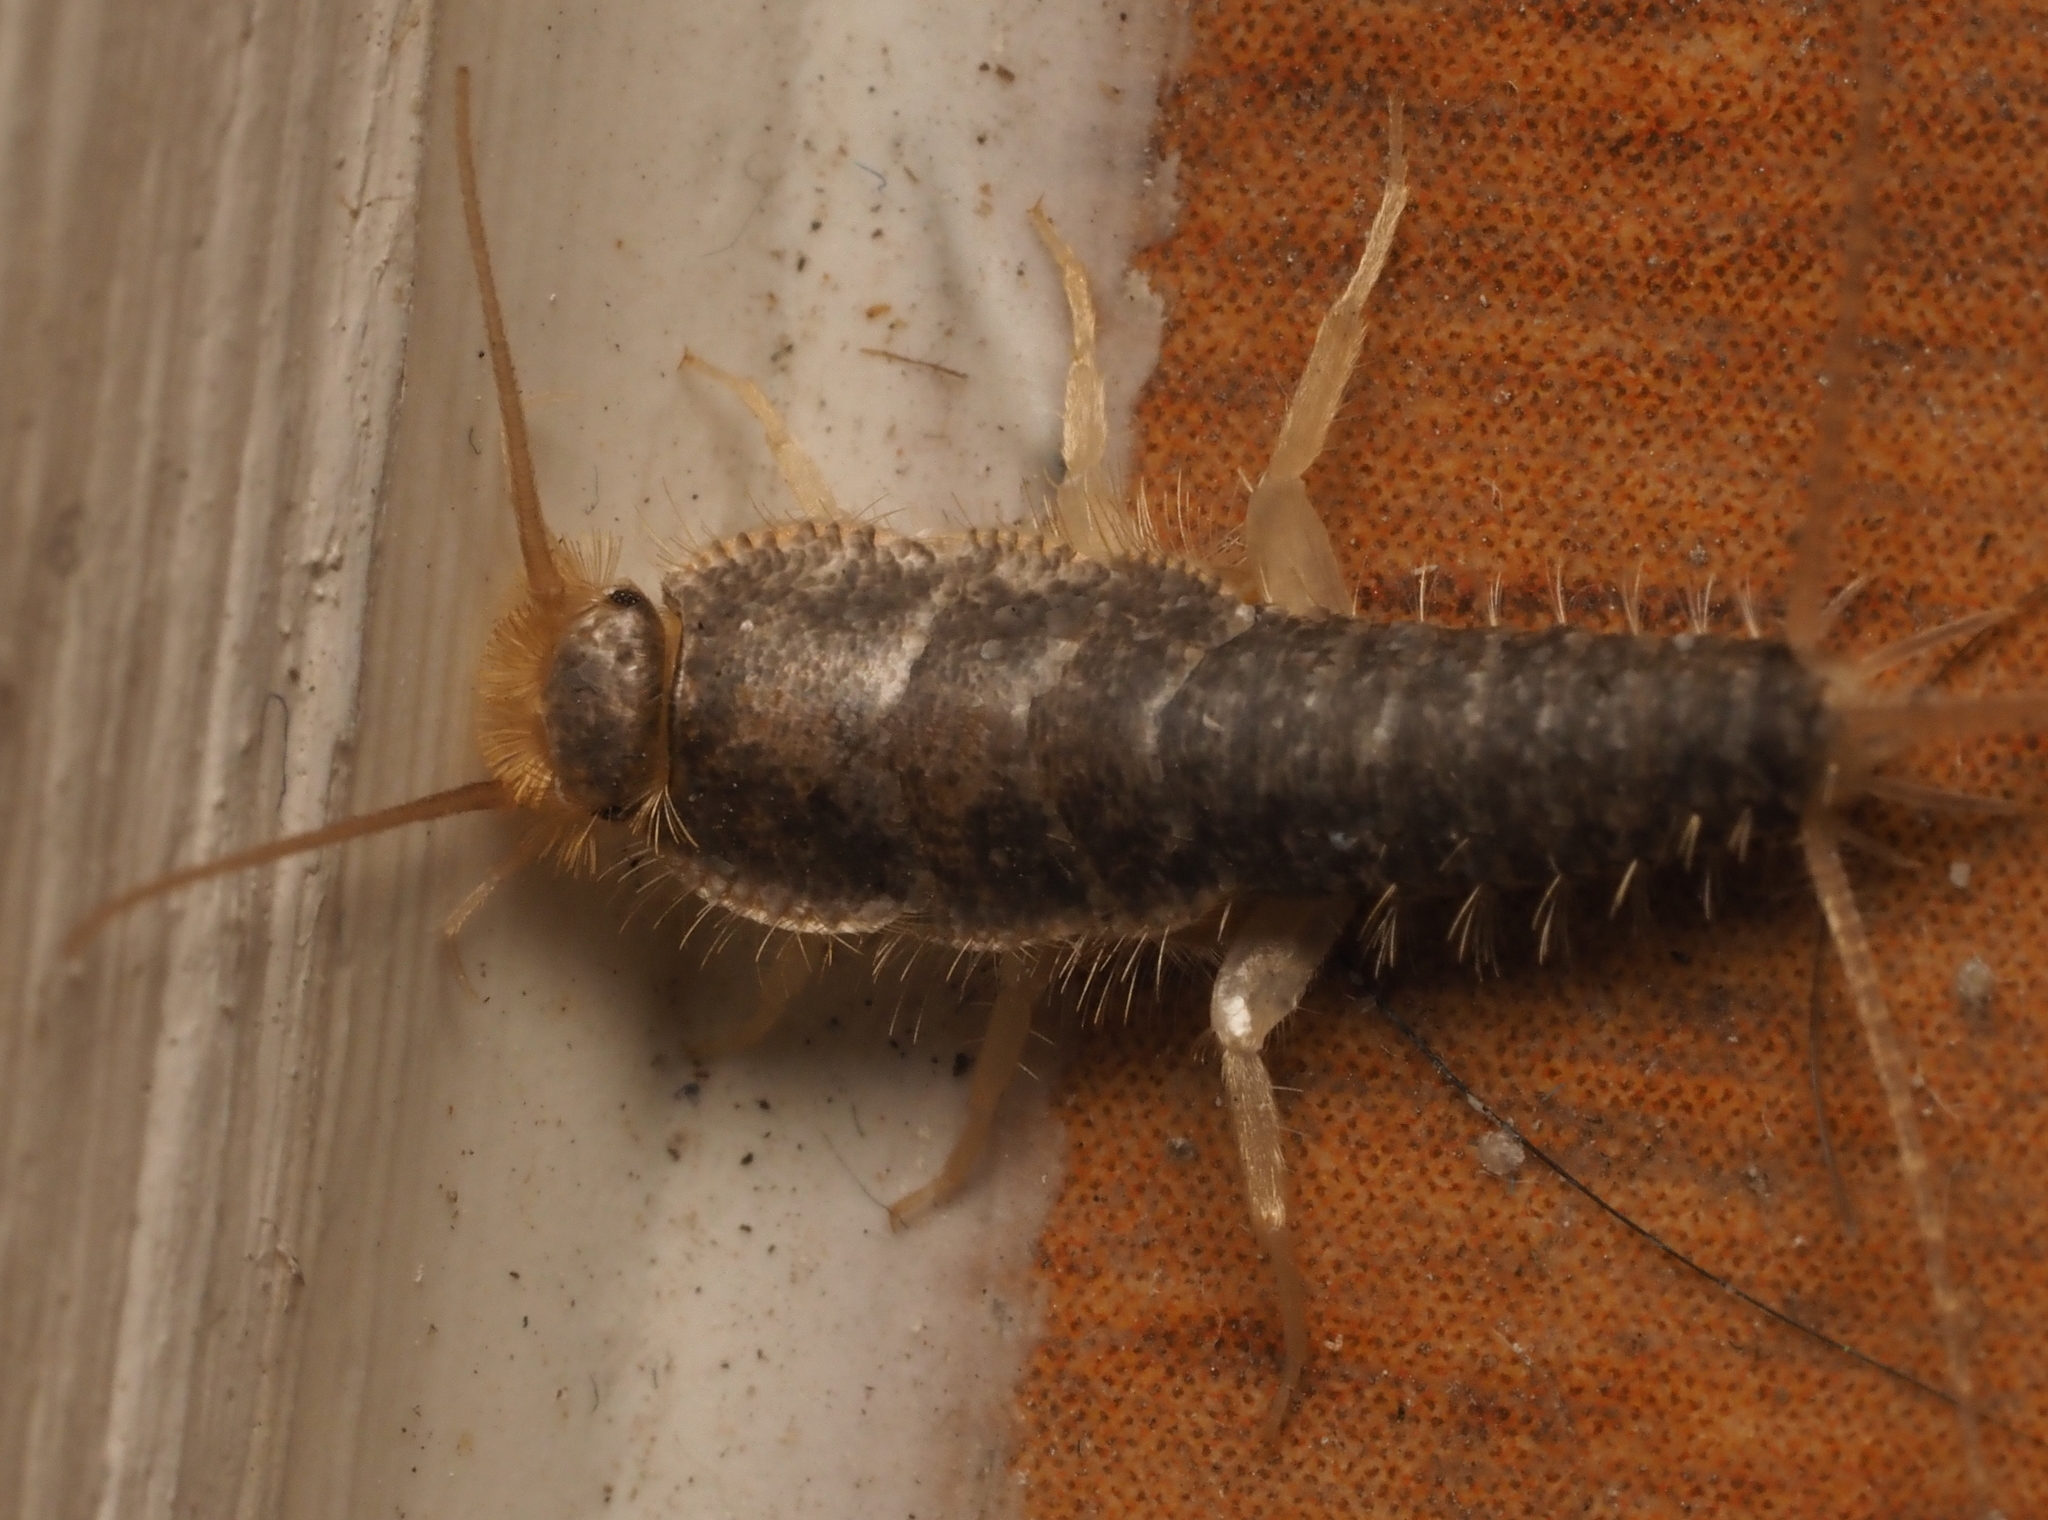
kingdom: Animalia
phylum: Arthropoda
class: Insecta
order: Zygentoma
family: Lepismatidae
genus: Ctenolepisma
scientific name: Ctenolepisma longicaudatum
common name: Silverfish
